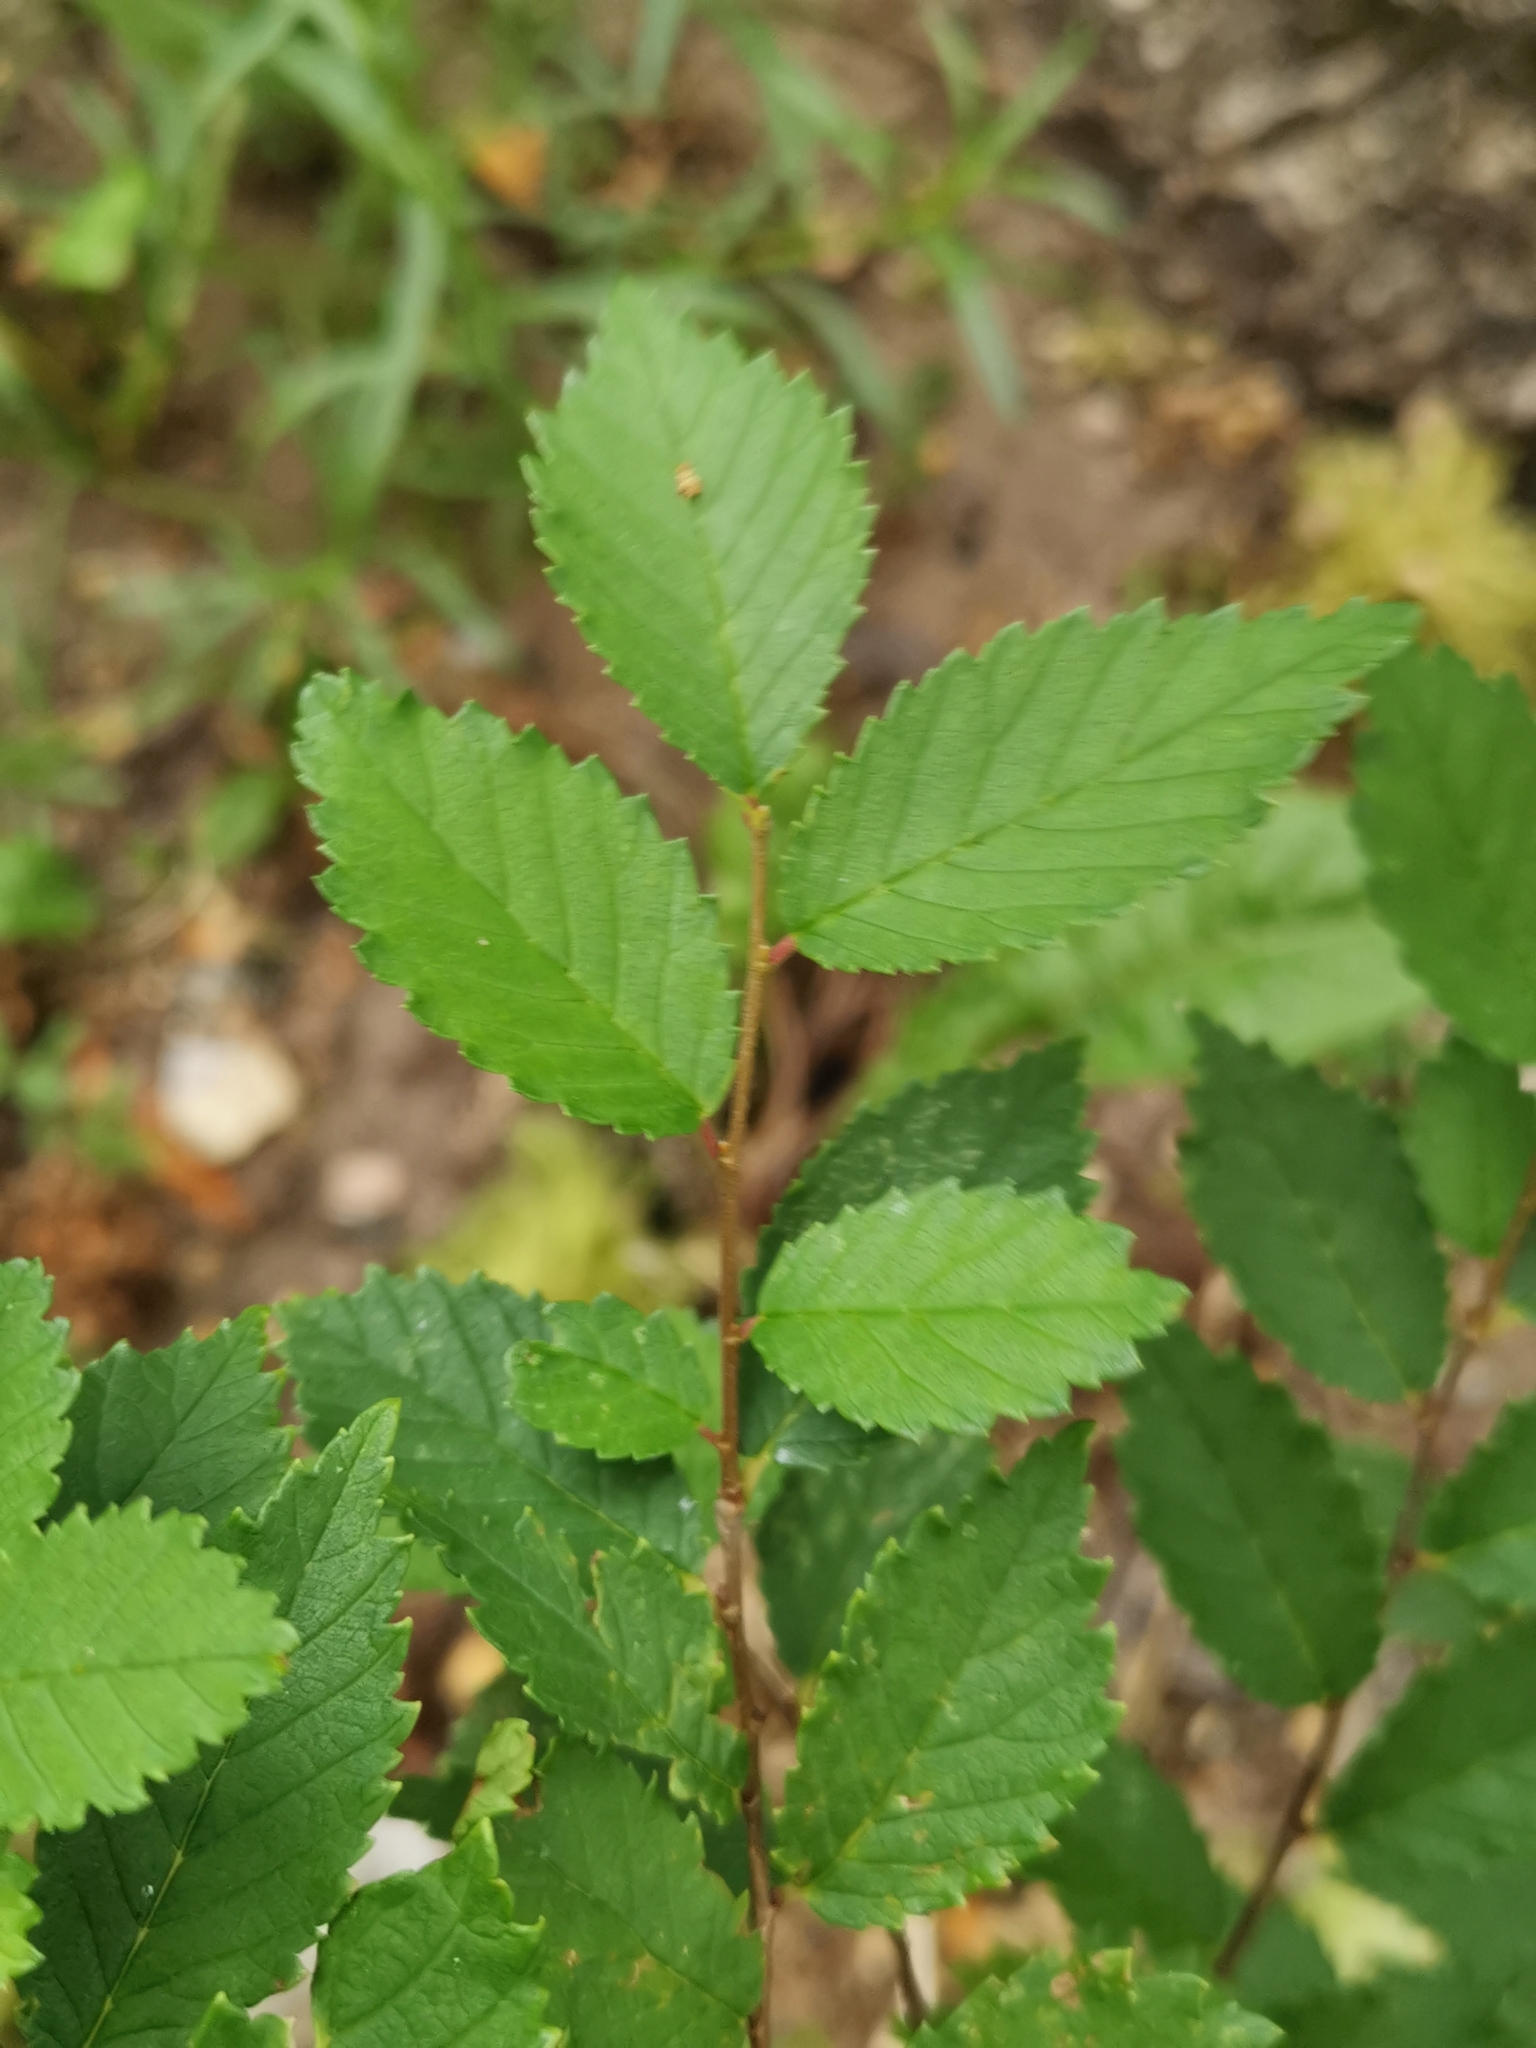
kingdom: Plantae
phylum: Tracheophyta
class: Magnoliopsida
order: Rosales
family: Ulmaceae
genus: Ulmus
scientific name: Ulmus minor
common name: Small-leaved elm
